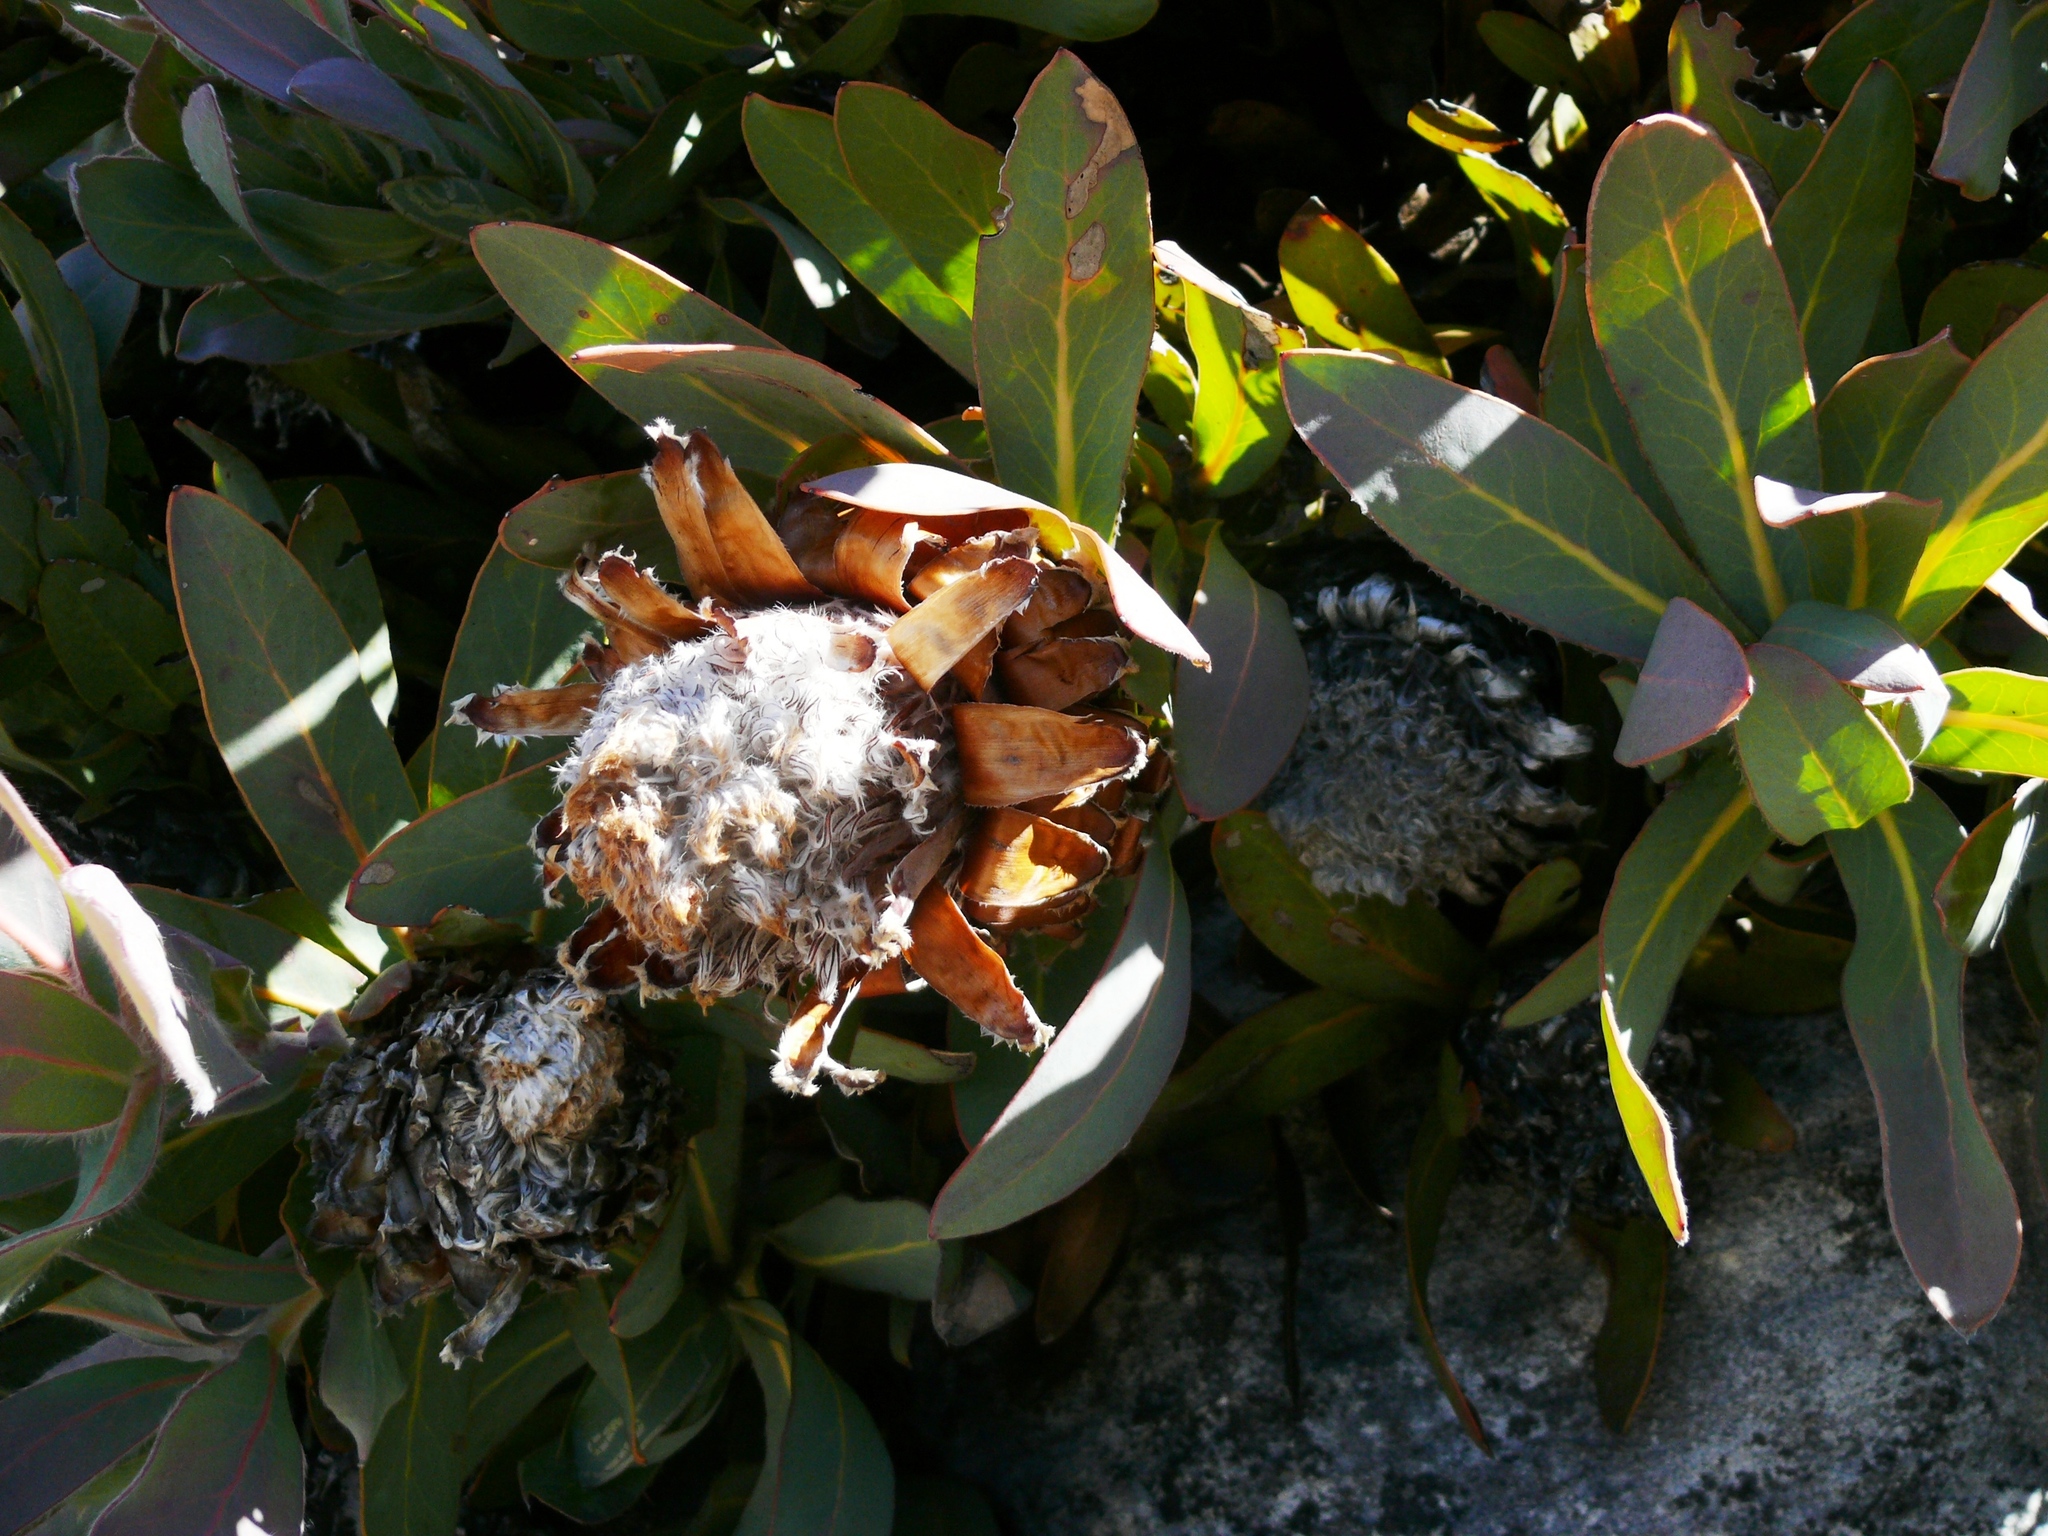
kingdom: Plantae
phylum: Tracheophyta
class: Magnoliopsida
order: Proteales
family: Proteaceae
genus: Protea
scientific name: Protea magnifica
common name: Bearded sugarbush
